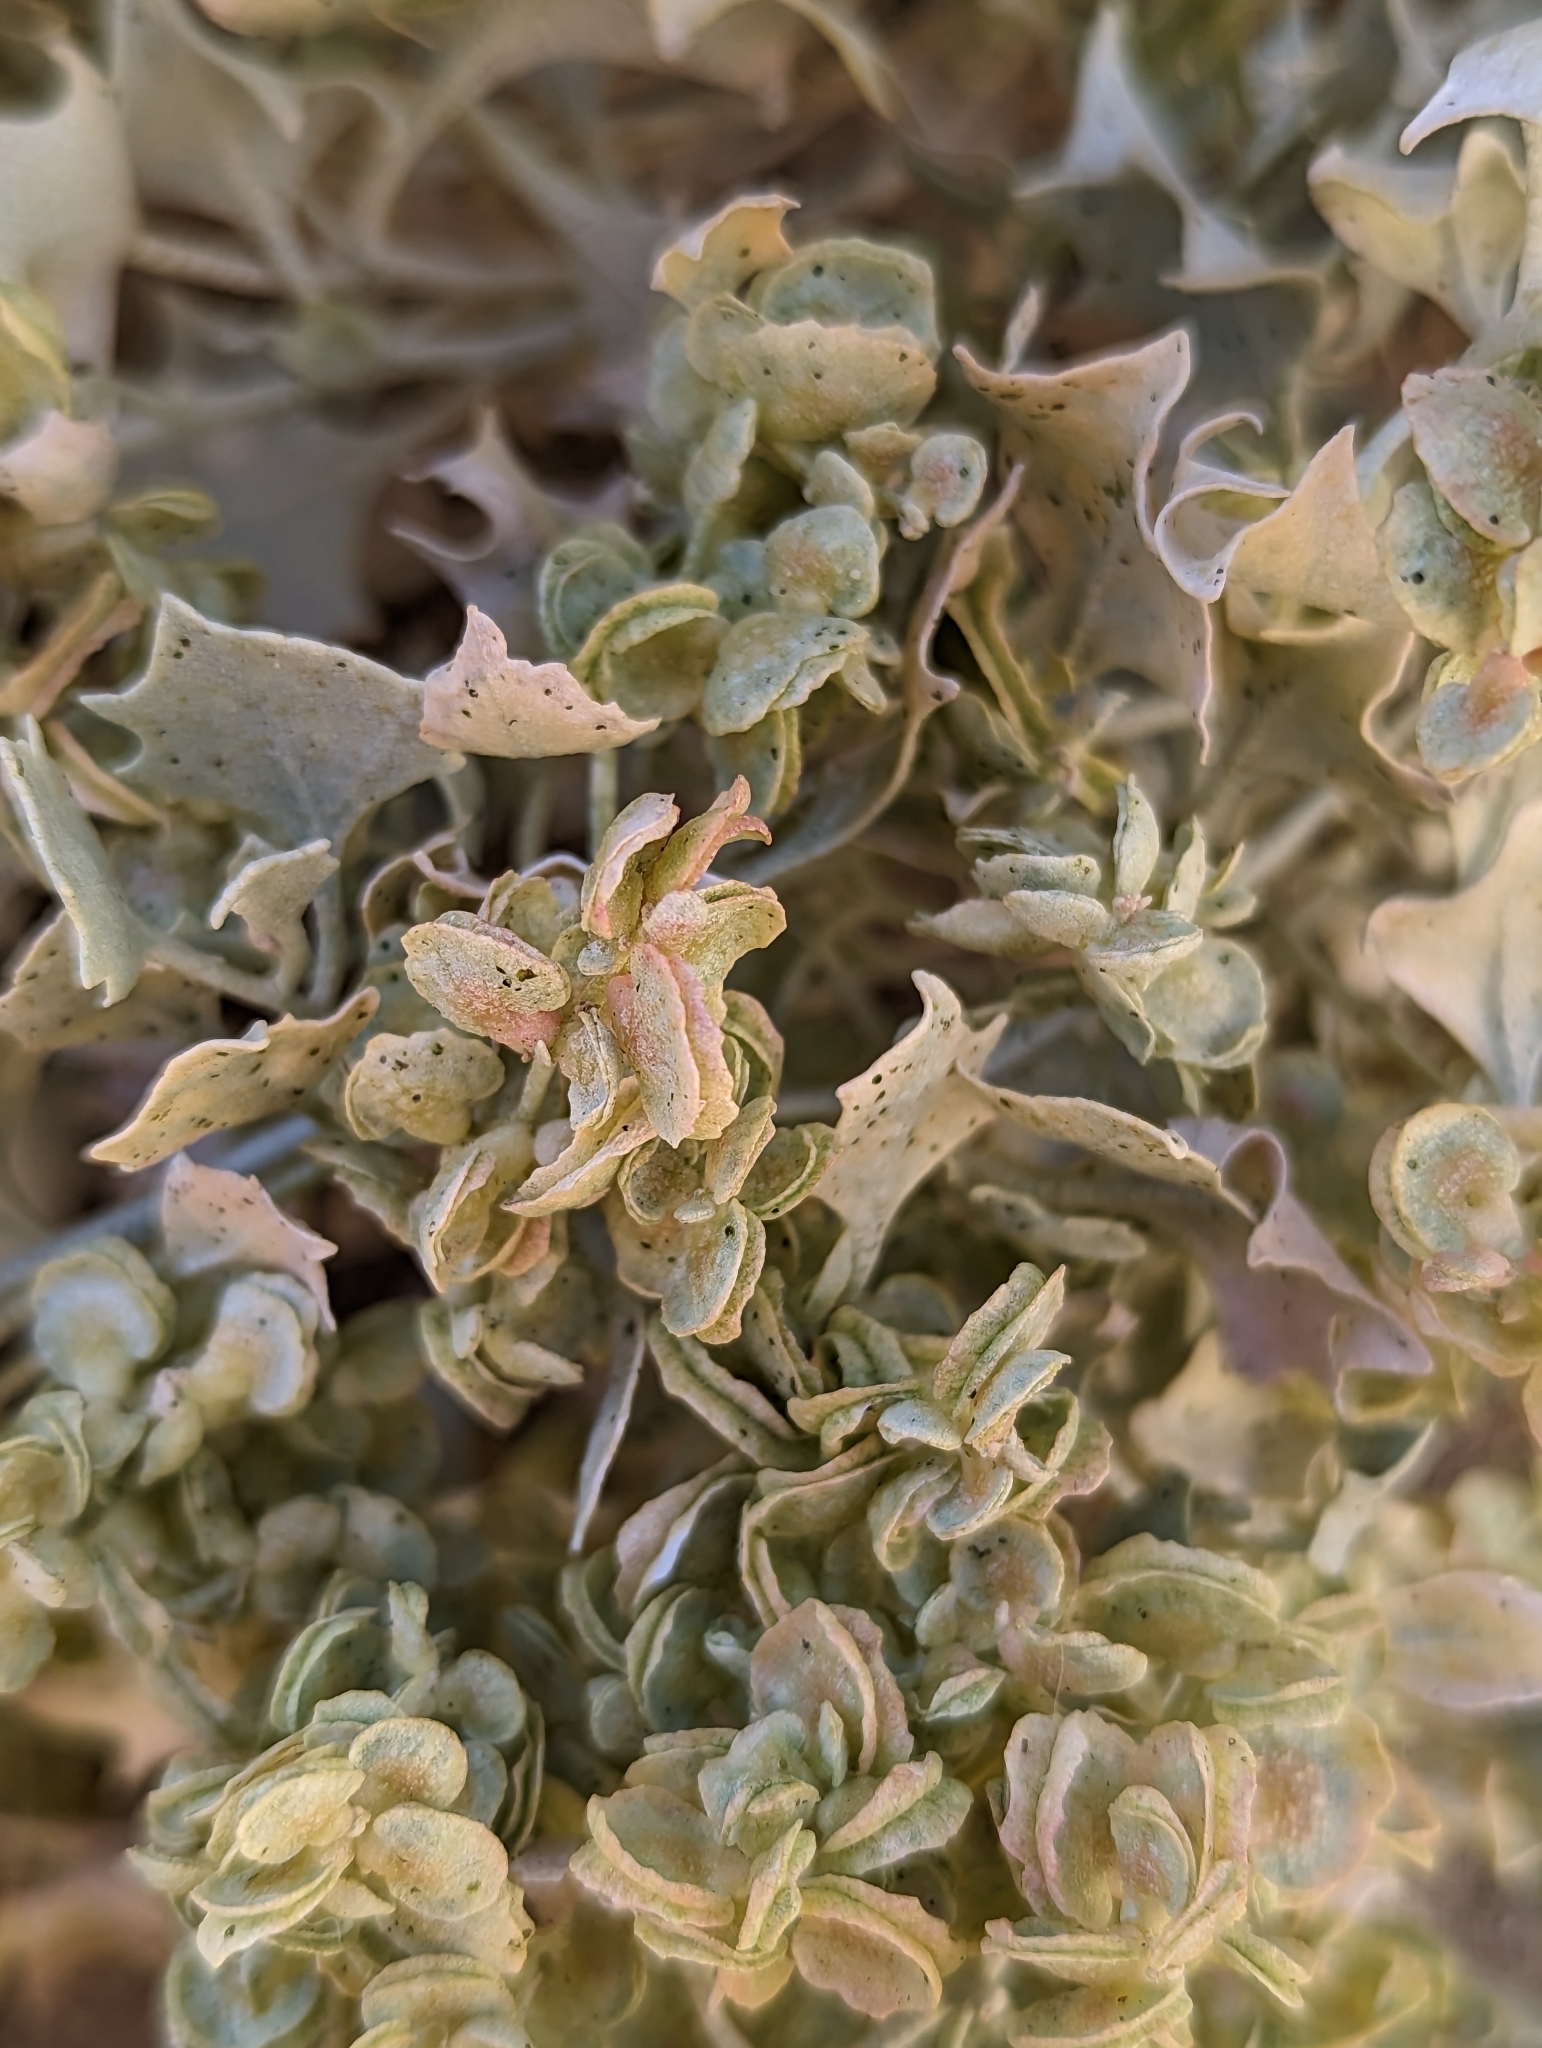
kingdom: Plantae
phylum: Tracheophyta
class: Magnoliopsida
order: Caryophyllales
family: Amaranthaceae
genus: Atriplex
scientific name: Atriplex hymenelytra
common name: Desert-holly
